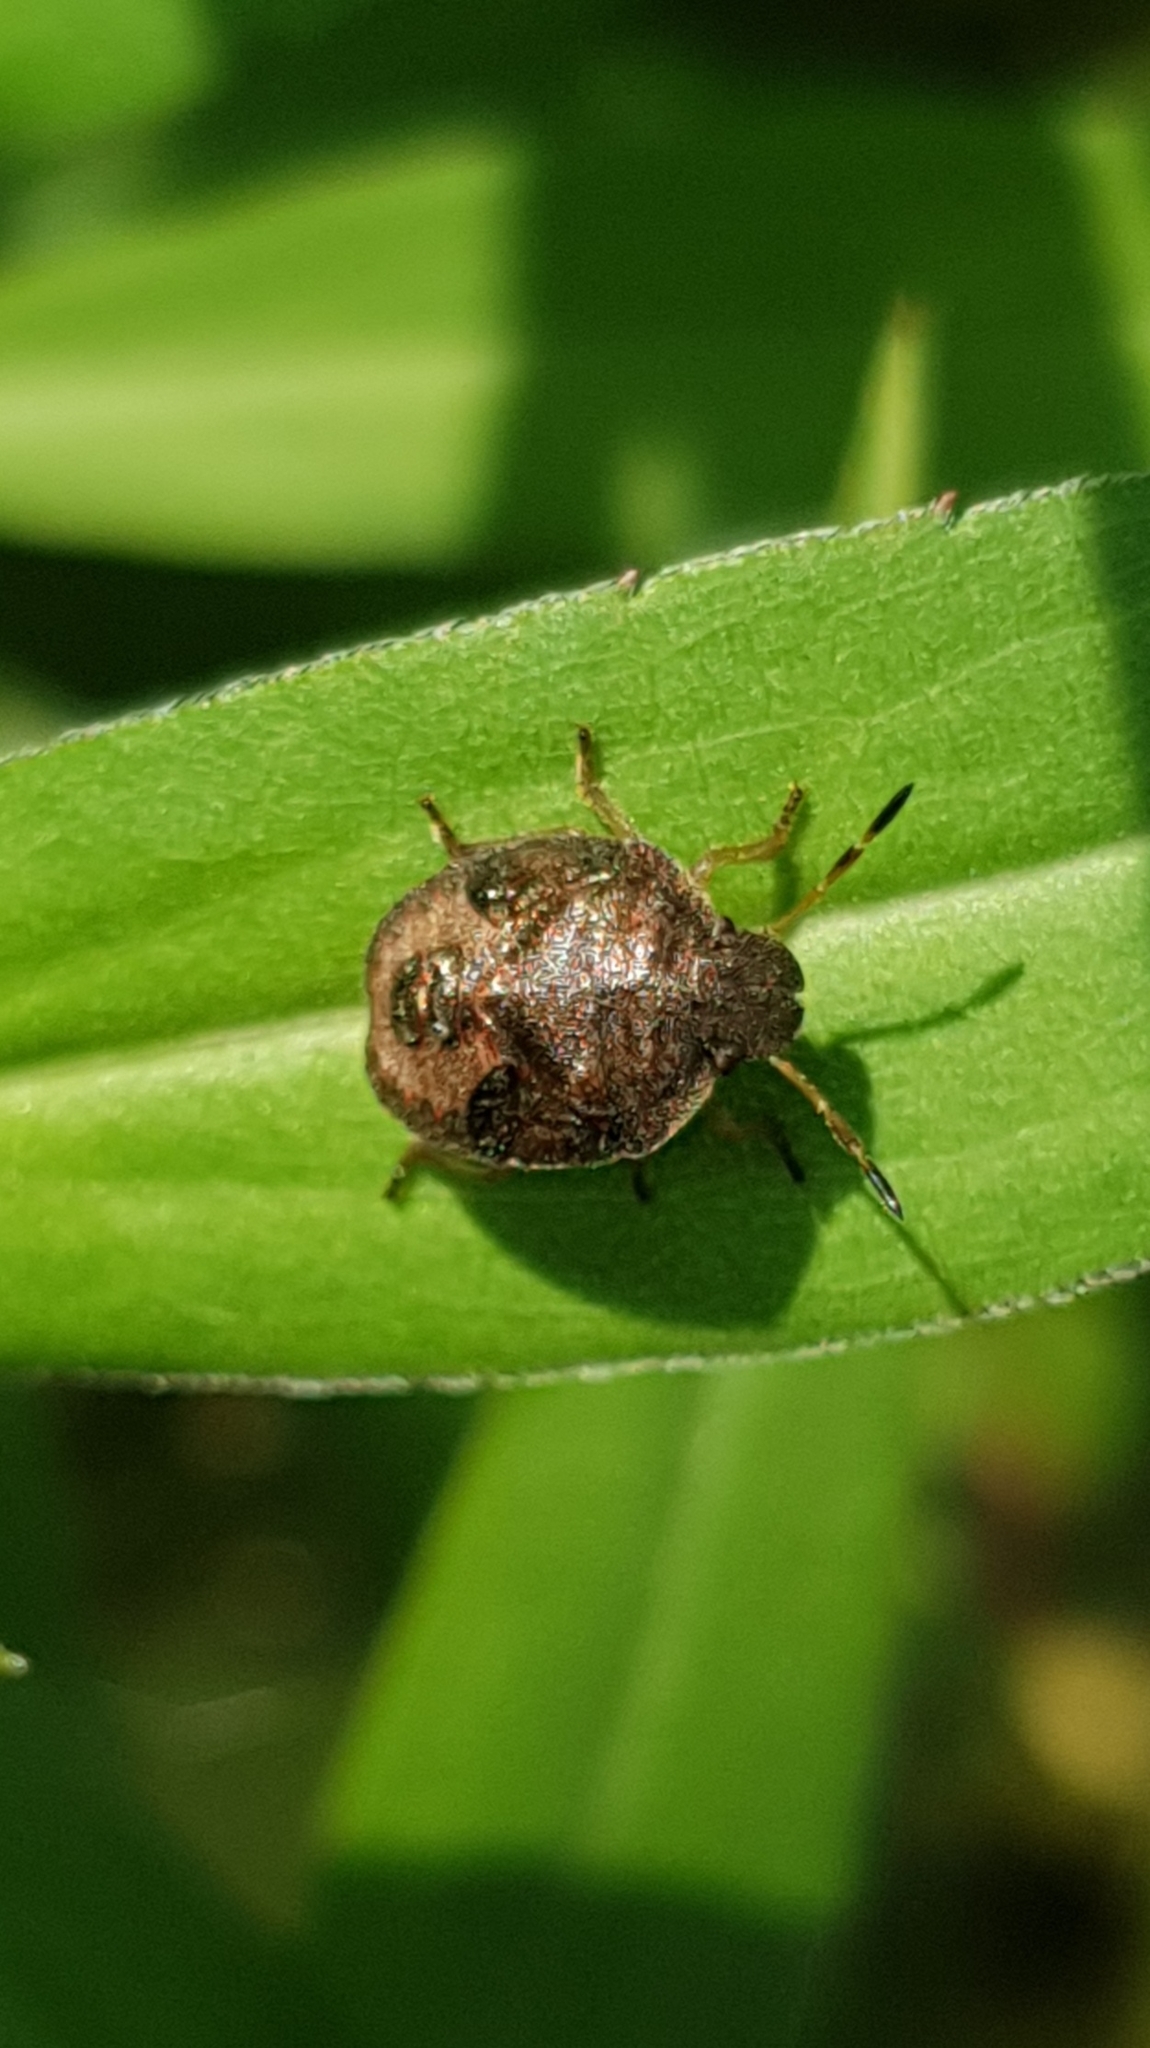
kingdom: Animalia
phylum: Arthropoda
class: Insecta
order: Hemiptera
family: Pentatomidae
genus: Holcostethus
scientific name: Holcostethus strictus
